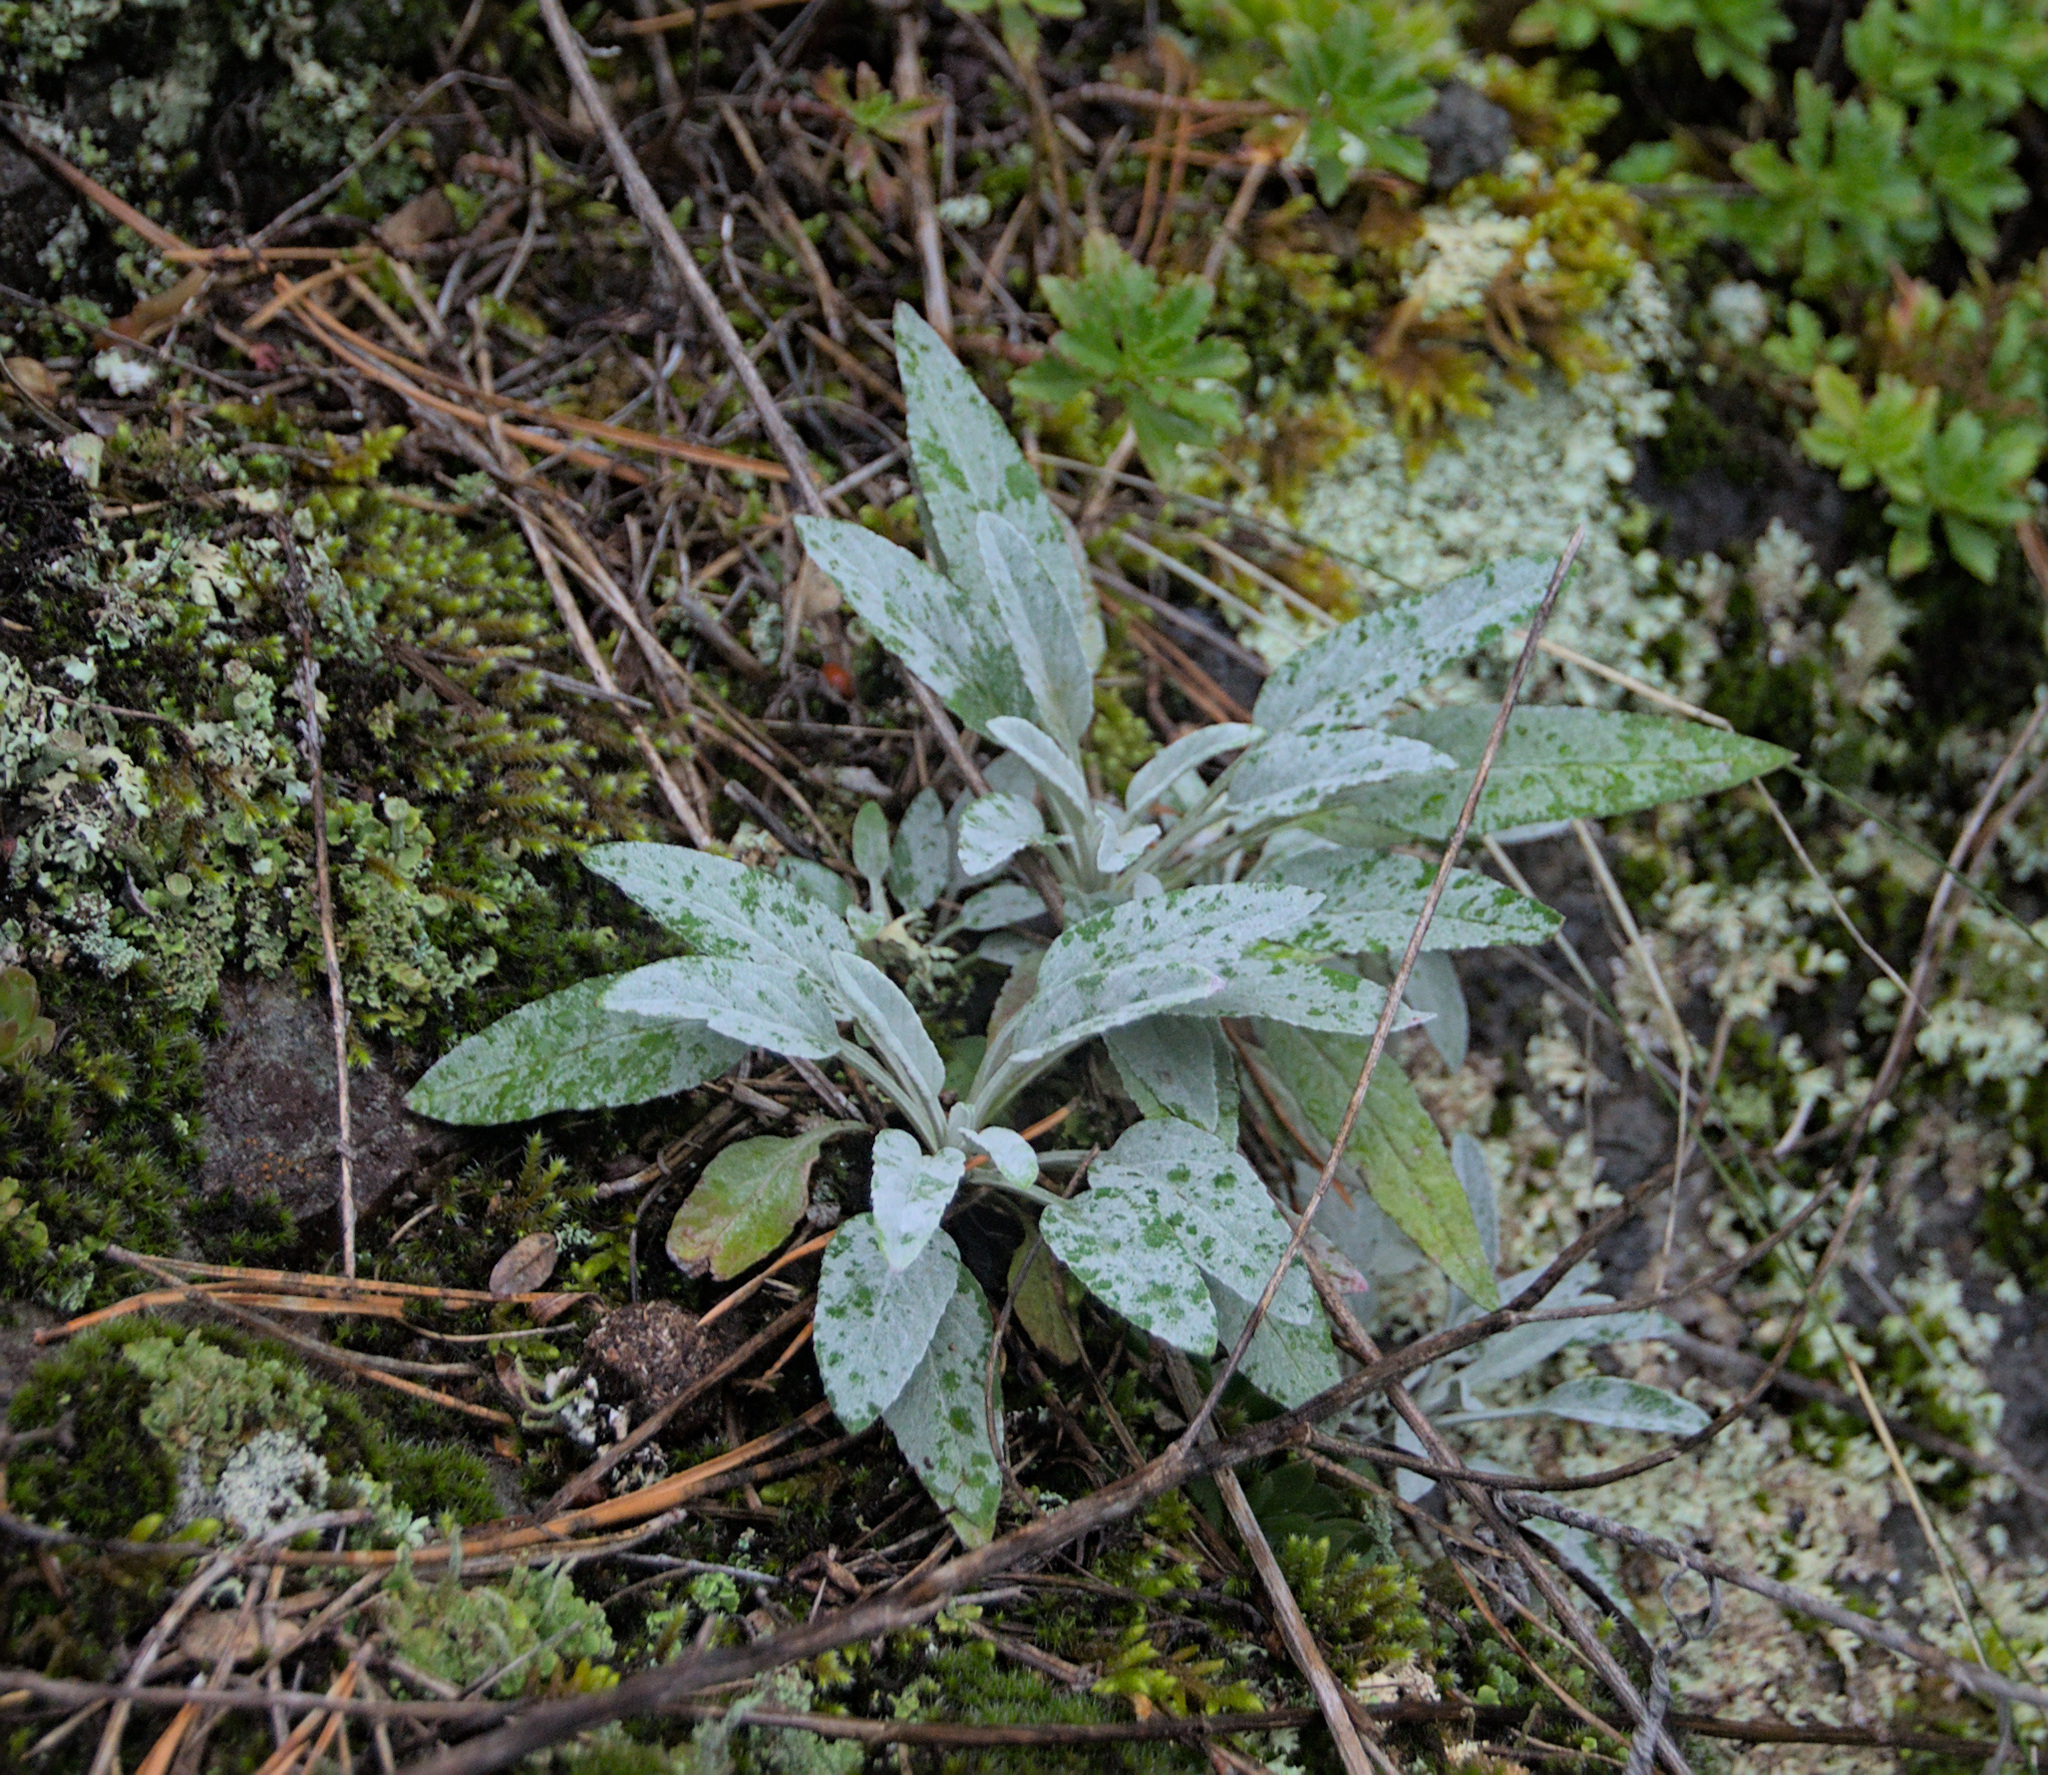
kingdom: Plantae
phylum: Tracheophyta
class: Magnoliopsida
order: Lamiales
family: Plantaginaceae
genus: Veronica
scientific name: Veronica incana
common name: Silver speedwell
